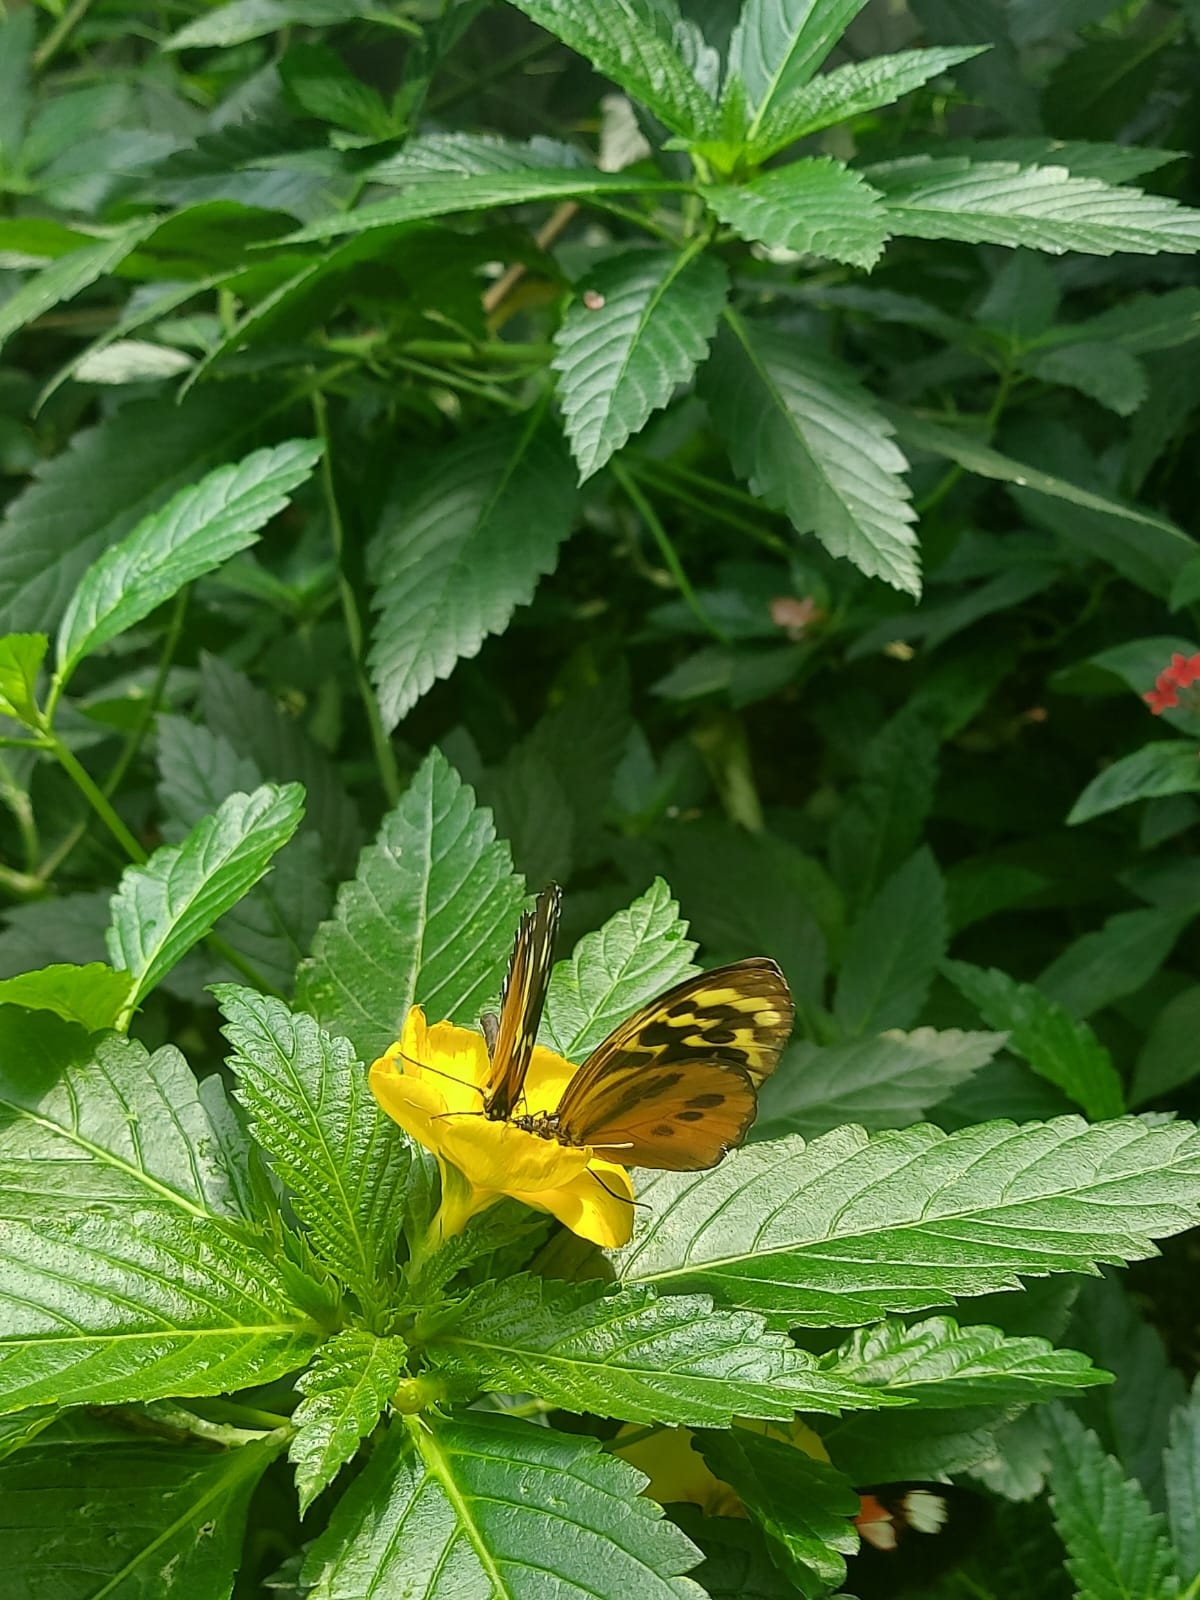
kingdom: Animalia
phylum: Arthropoda
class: Insecta
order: Lepidoptera
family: Nymphalidae
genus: Tithorea
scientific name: Tithorea harmonia
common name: Harmonia tigerwing
